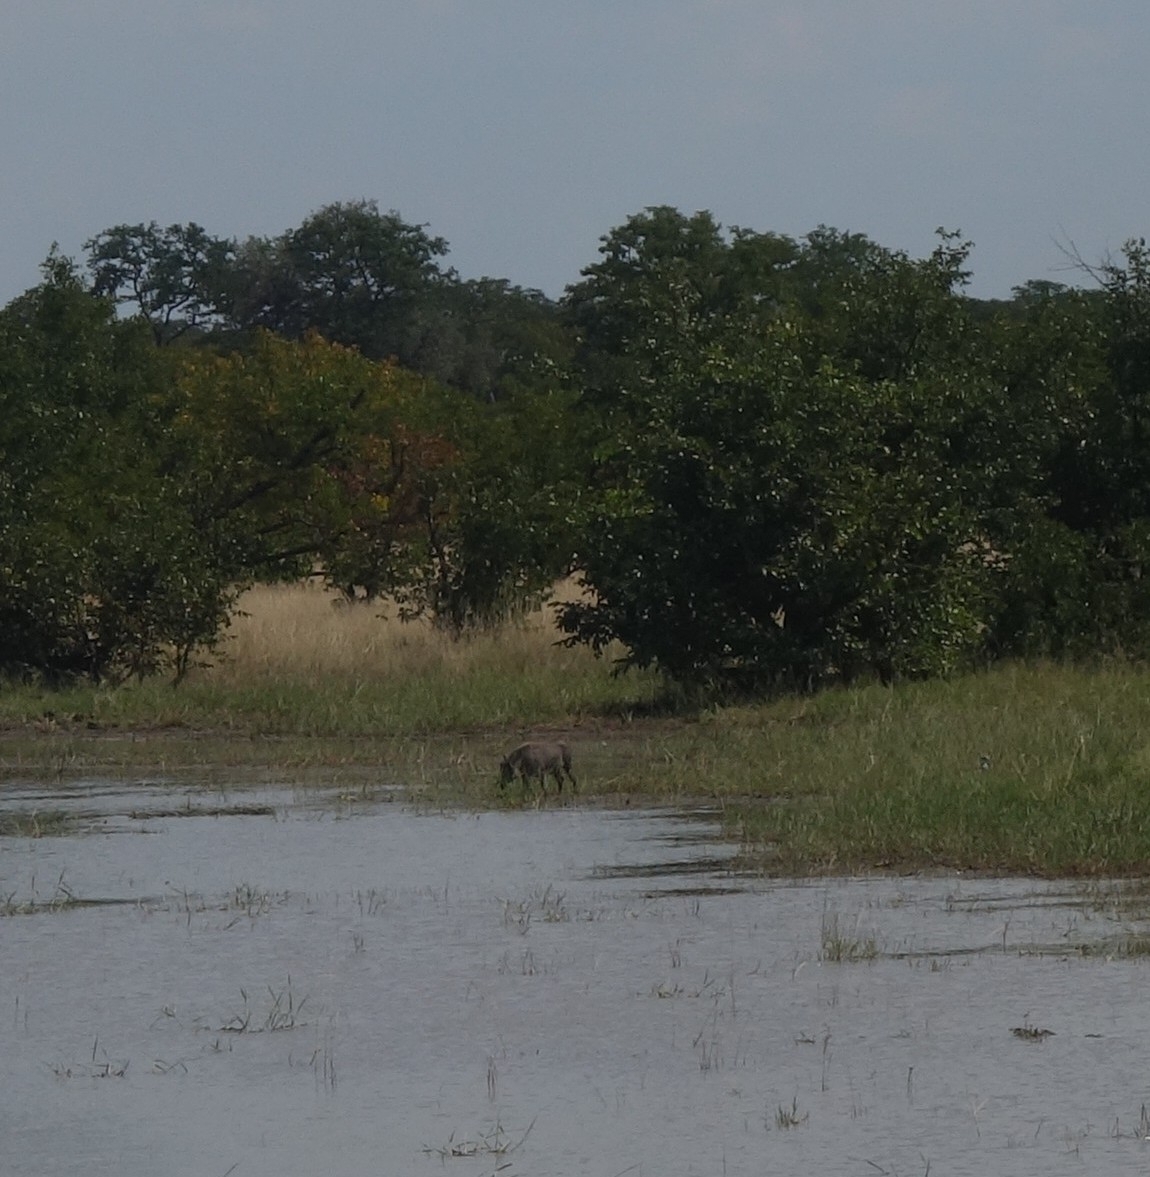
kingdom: Animalia
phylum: Chordata
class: Mammalia
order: Artiodactyla
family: Suidae
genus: Phacochoerus
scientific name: Phacochoerus africanus
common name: Common warthog
